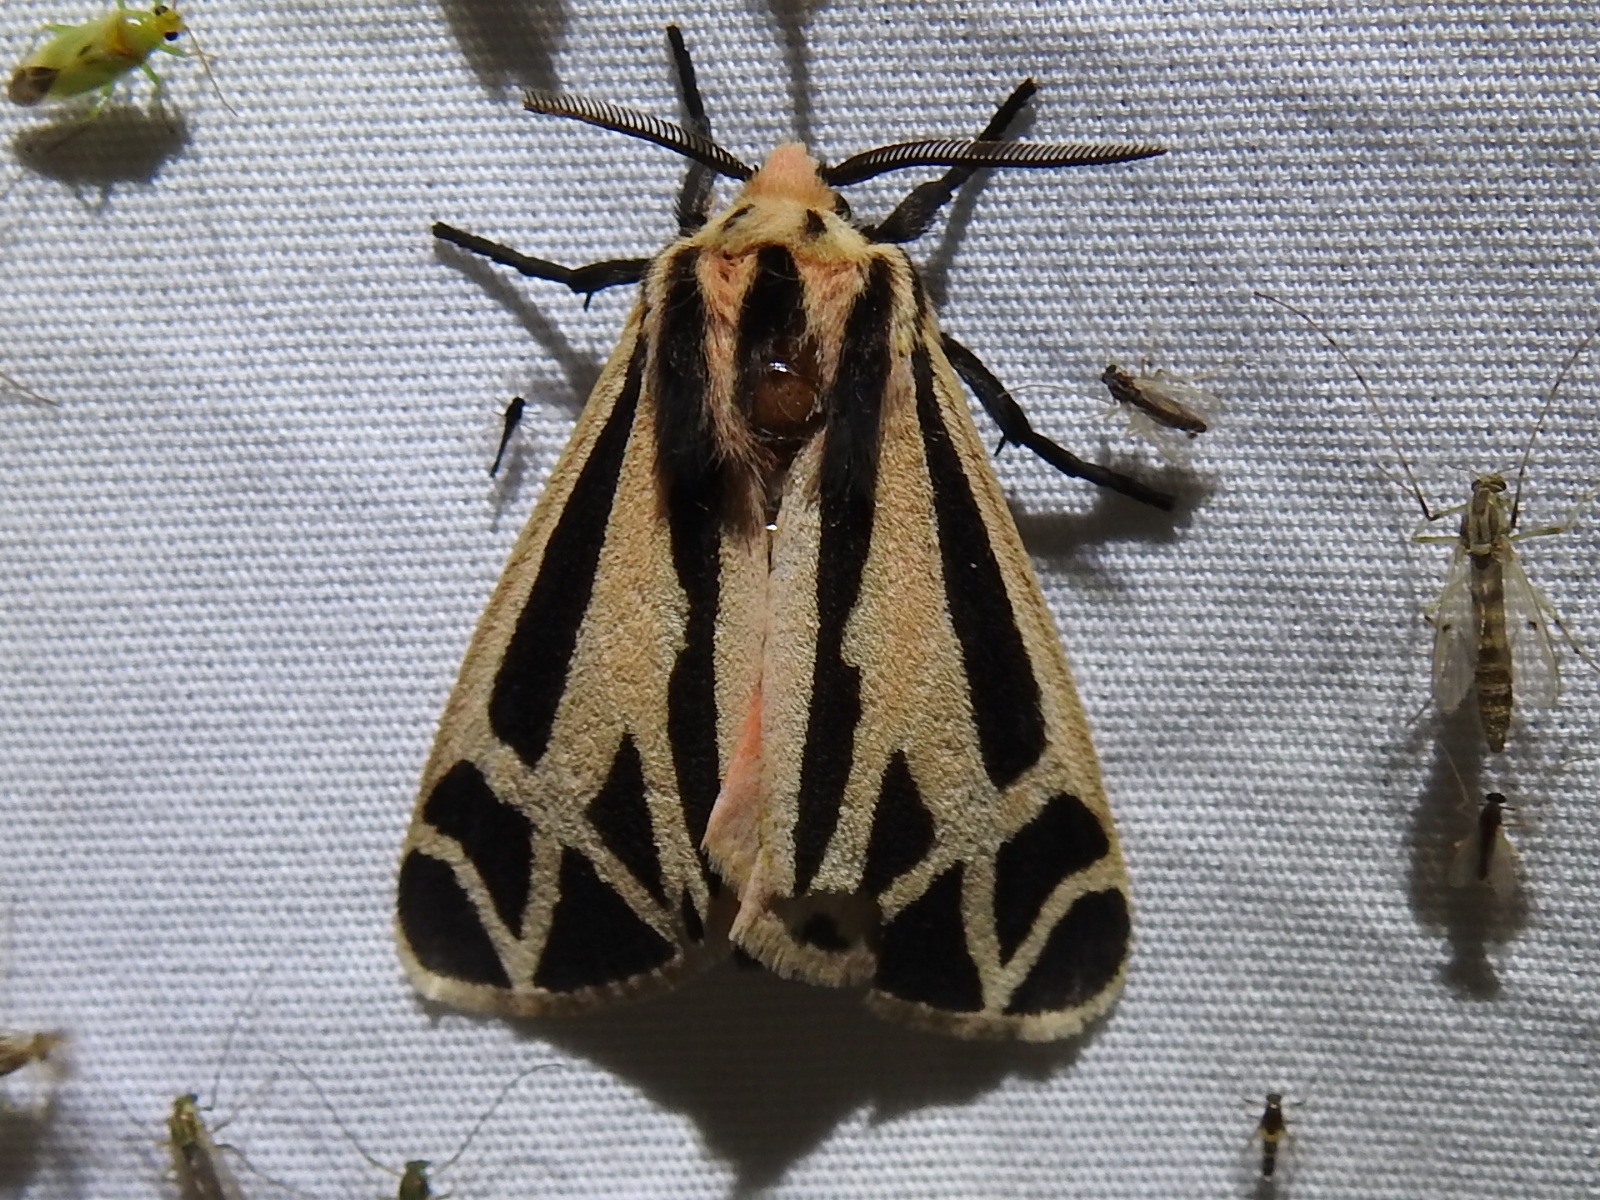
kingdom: Animalia
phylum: Arthropoda
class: Insecta
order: Lepidoptera
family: Erebidae
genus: Apantesis
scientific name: Apantesis phalerata
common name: Harnessed tiger moth
